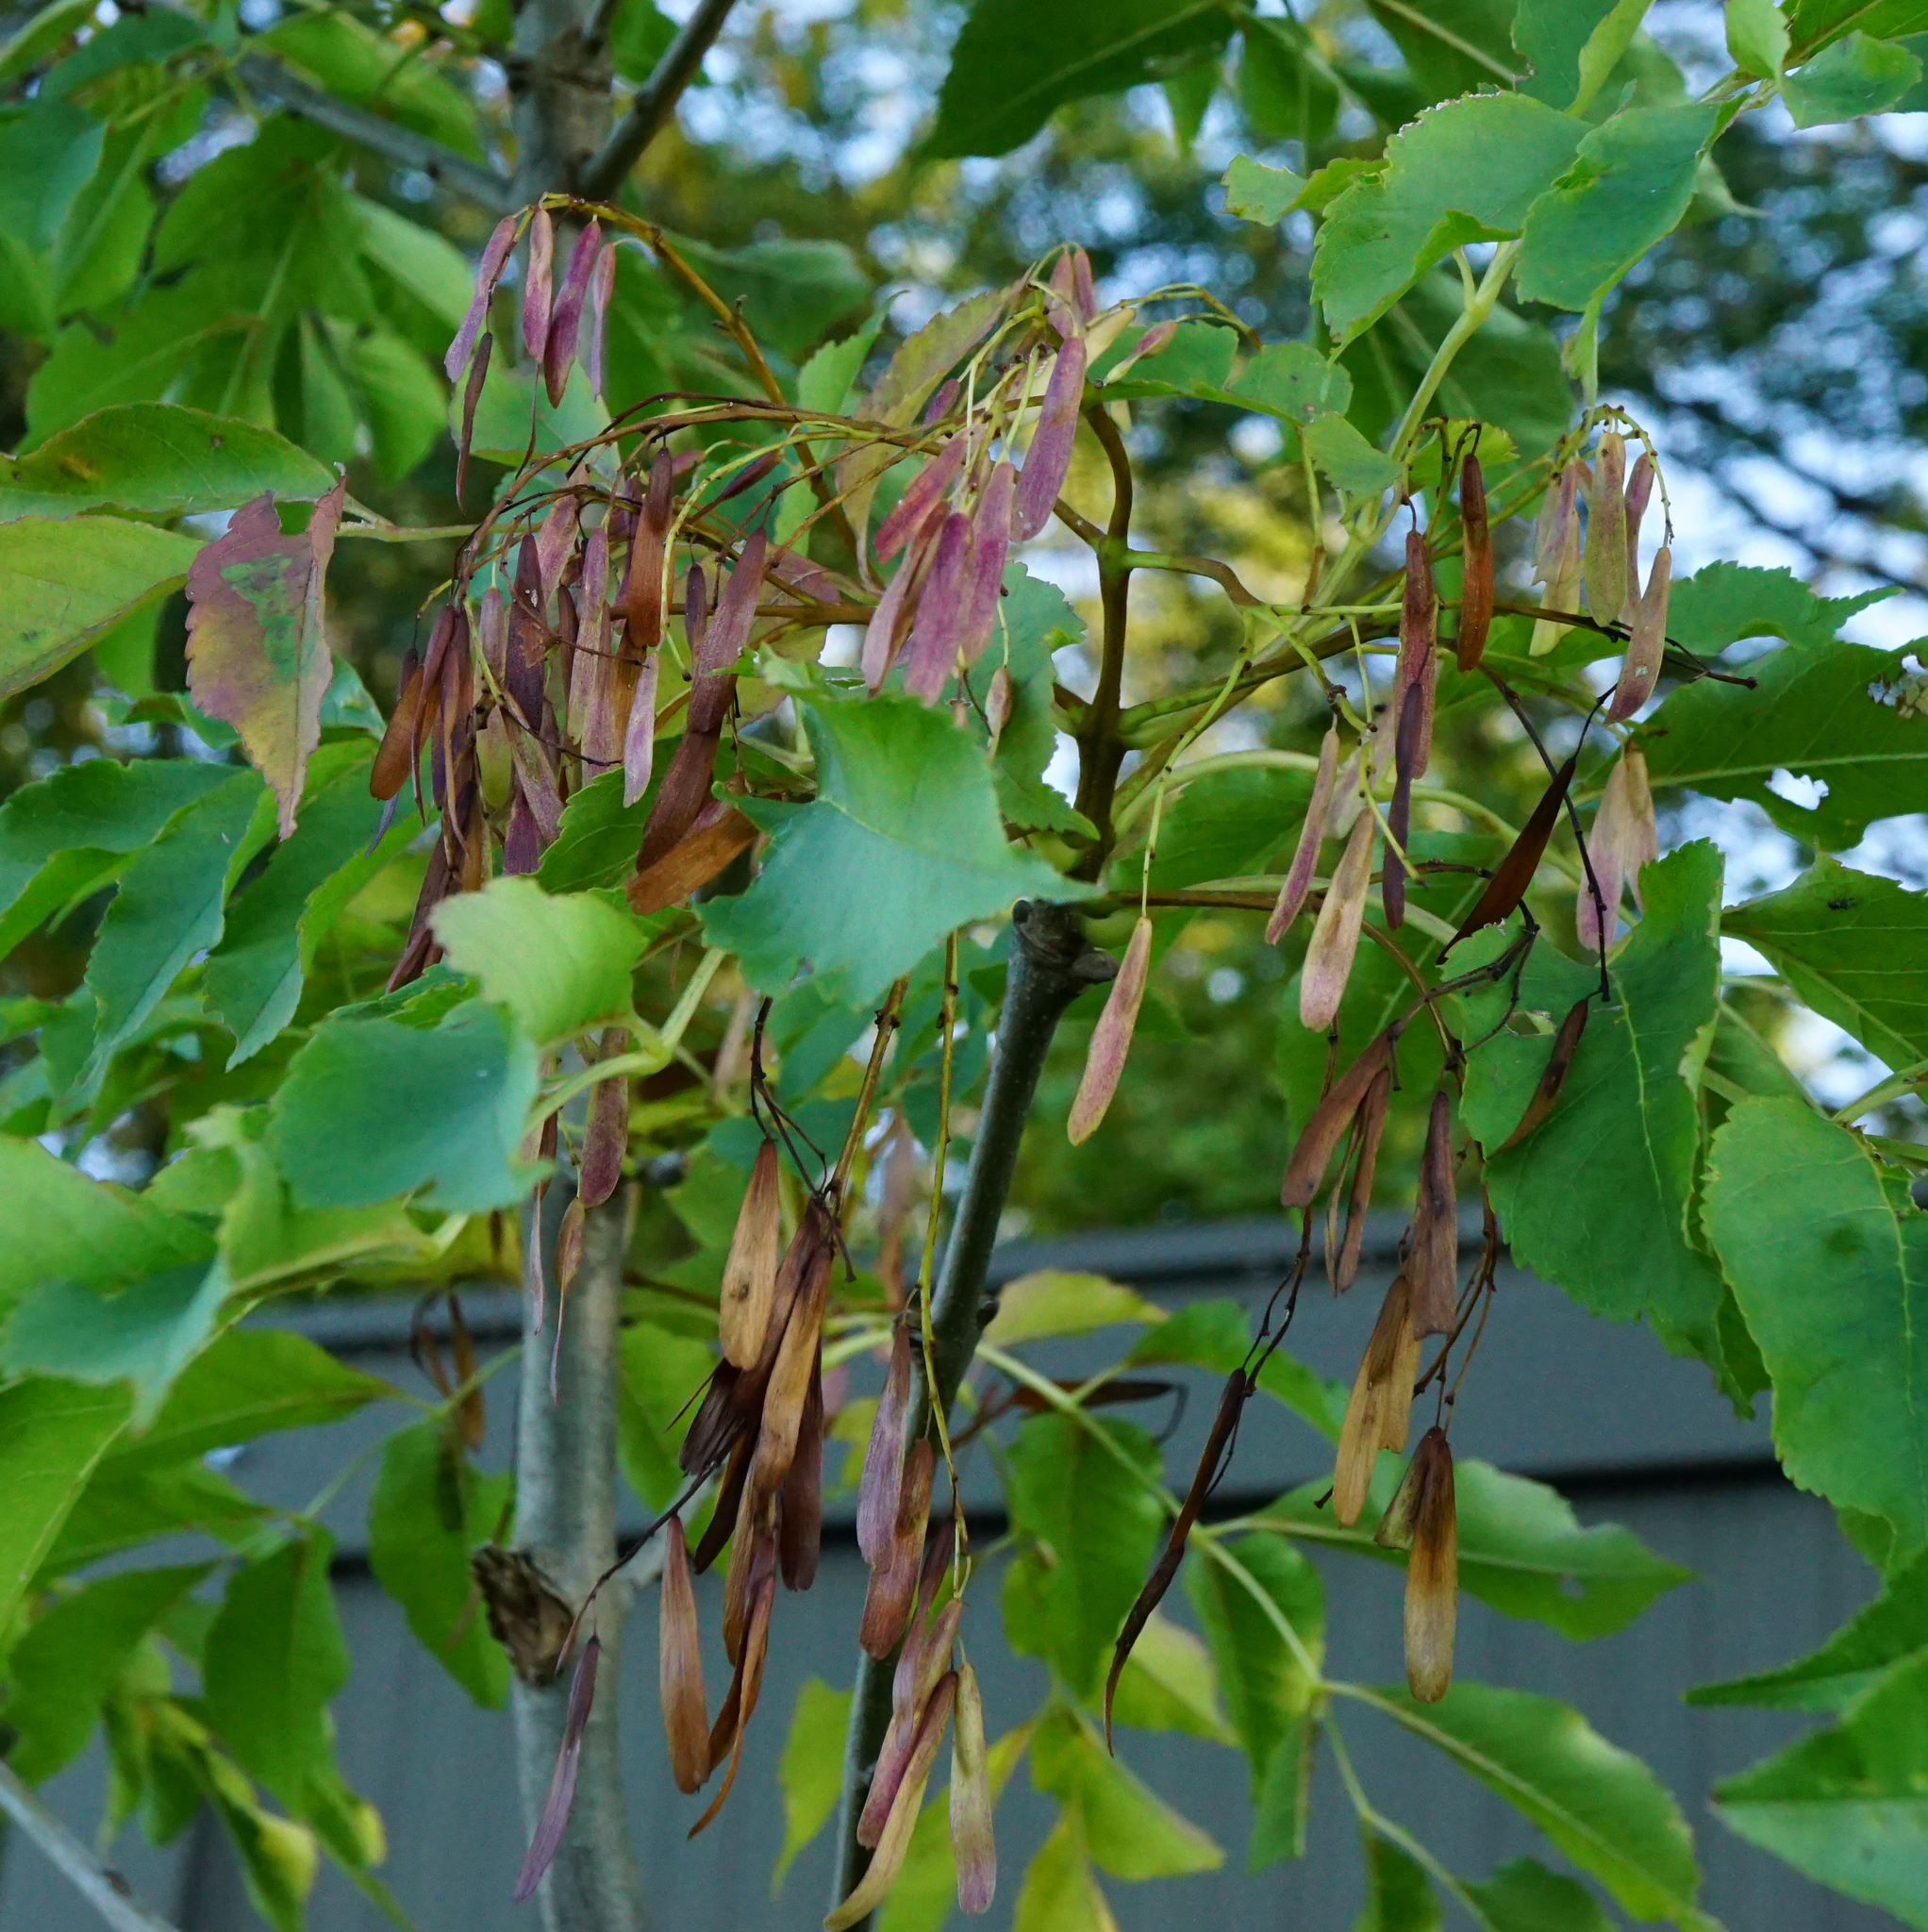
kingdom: Plantae
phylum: Tracheophyta
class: Magnoliopsida
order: Lamiales
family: Oleaceae
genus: Fraxinus
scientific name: Fraxinus ornus
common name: Manna ash
